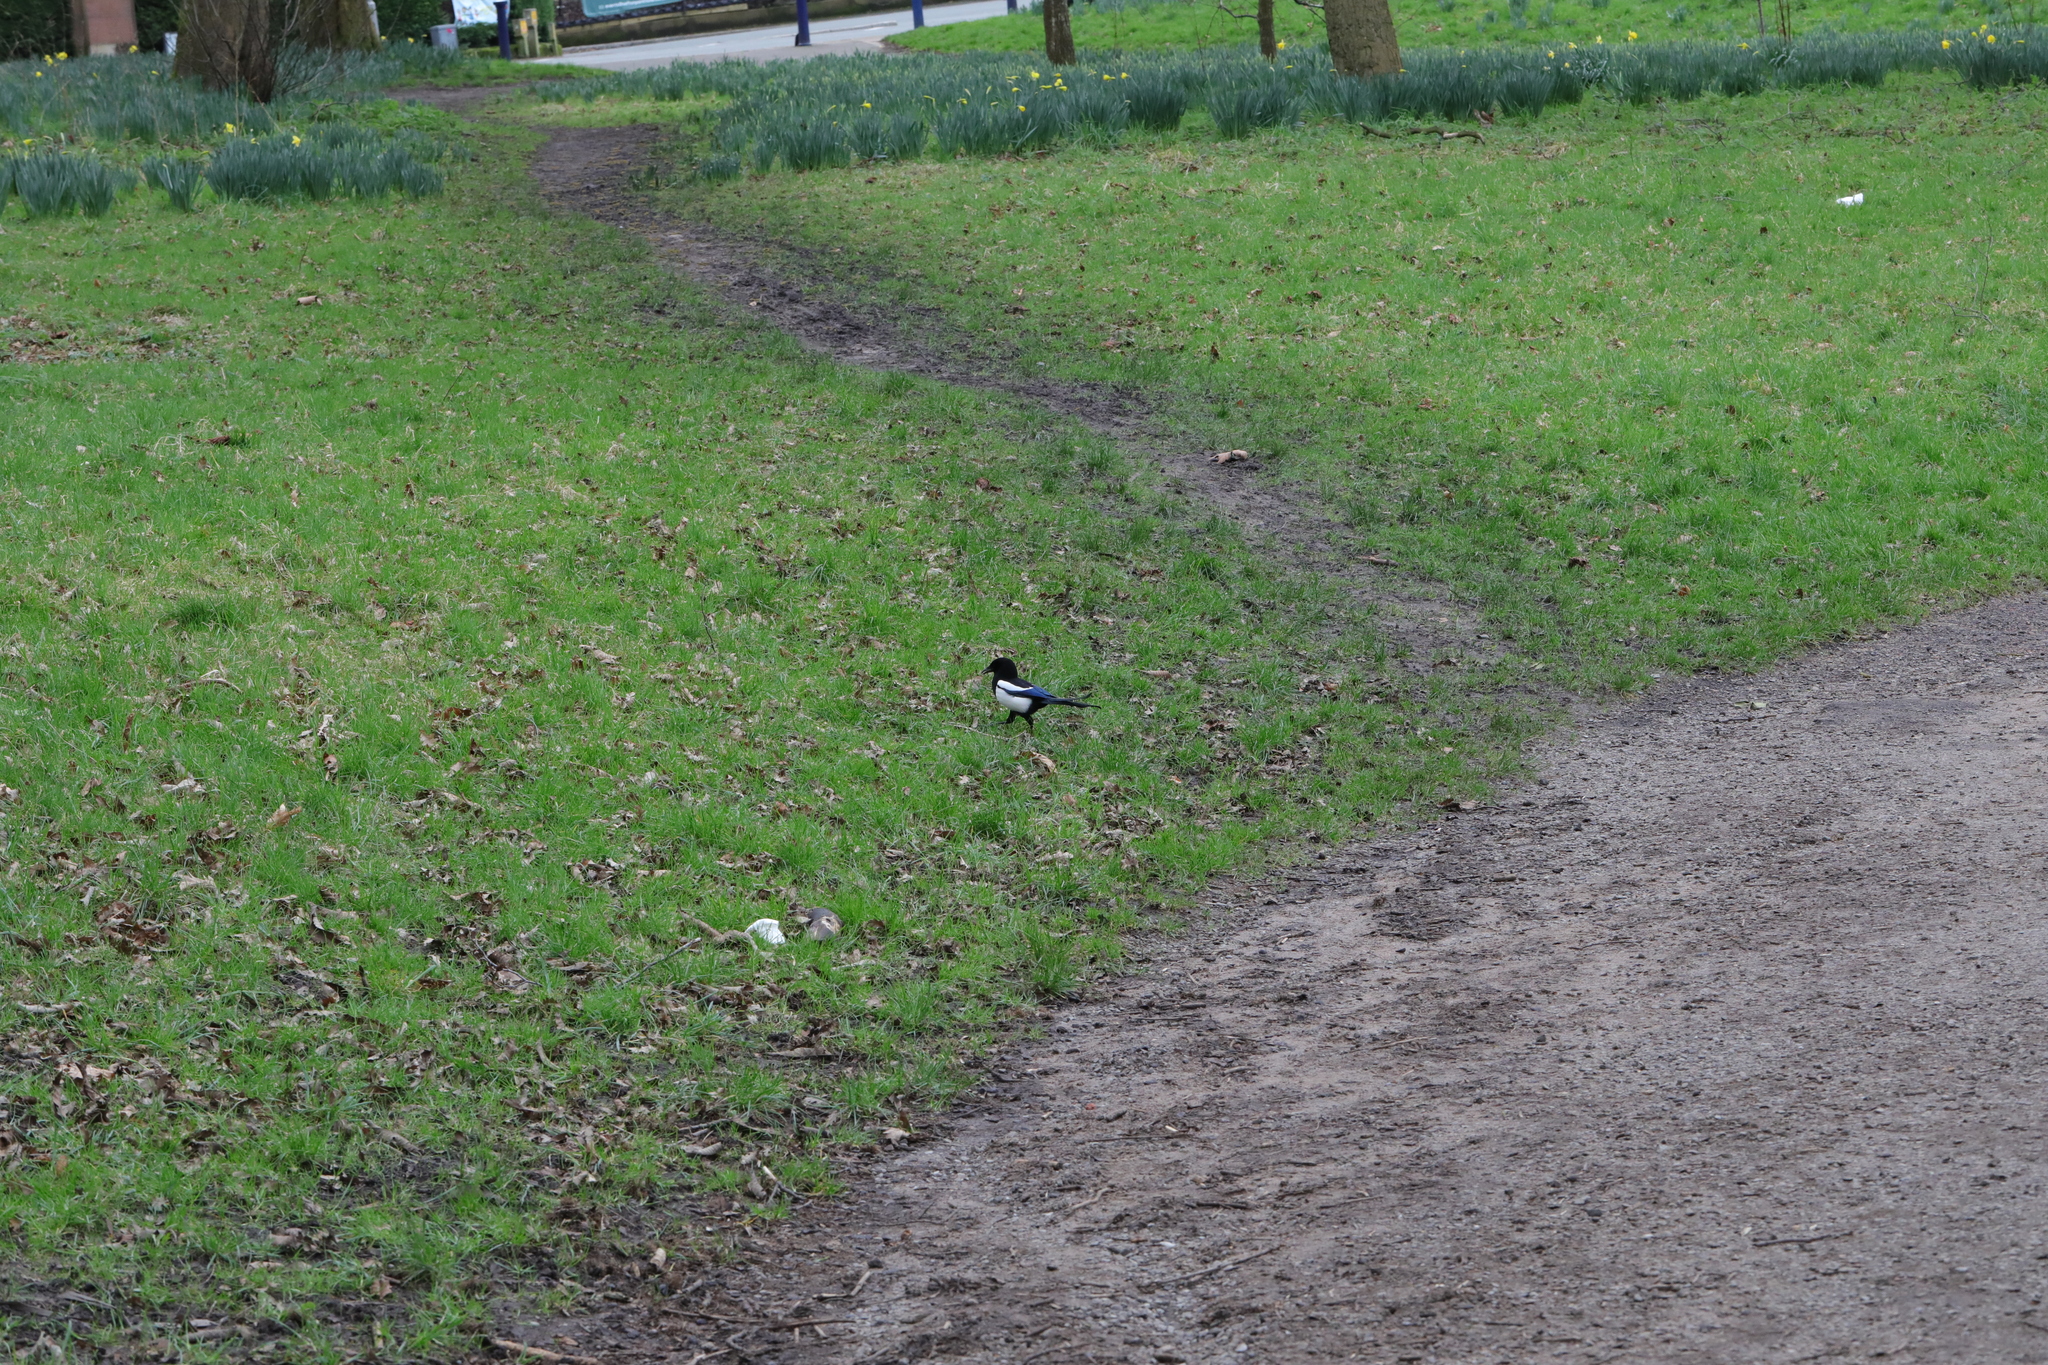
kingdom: Animalia
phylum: Chordata
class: Aves
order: Passeriformes
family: Corvidae
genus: Pica
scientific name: Pica pica
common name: Eurasian magpie
